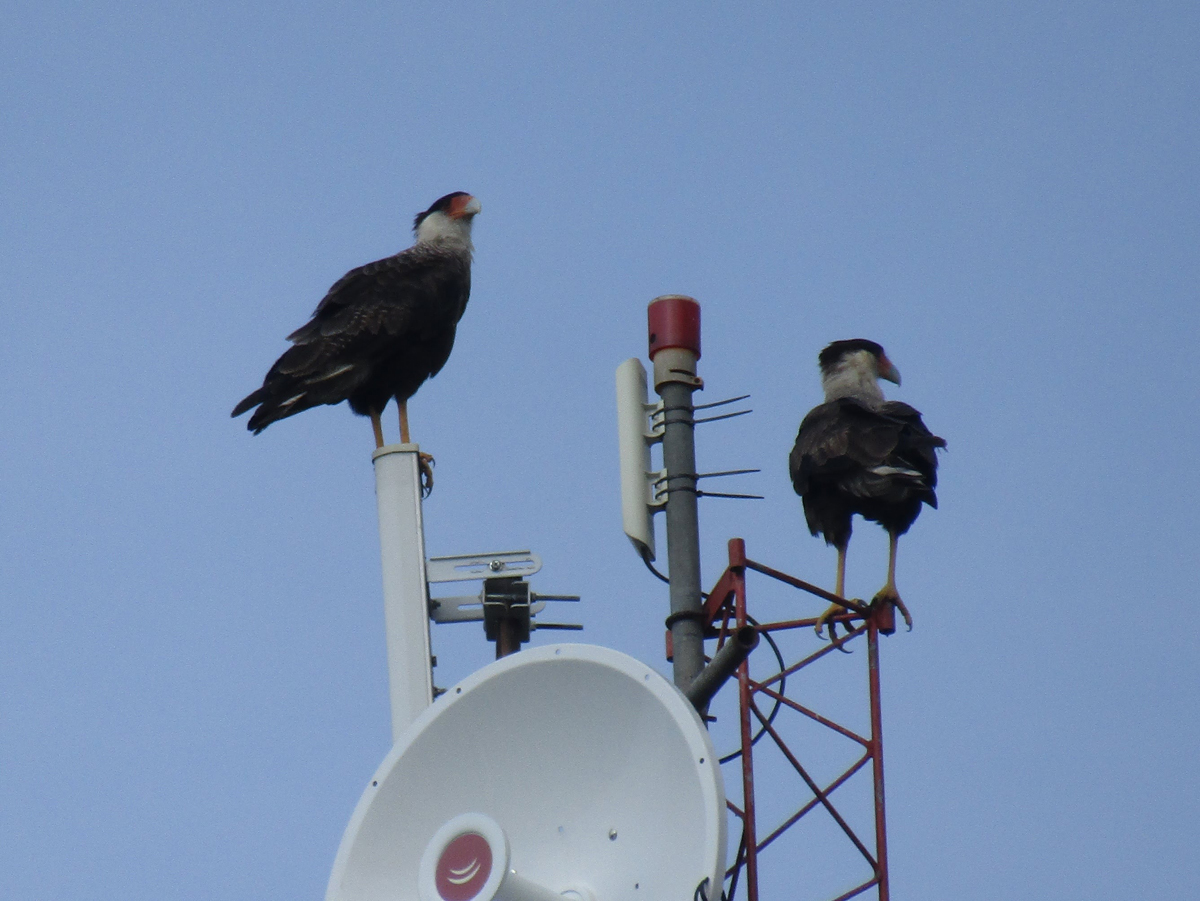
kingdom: Animalia
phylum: Chordata
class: Aves
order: Falconiformes
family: Falconidae
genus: Caracara
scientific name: Caracara plancus
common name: Southern caracara
